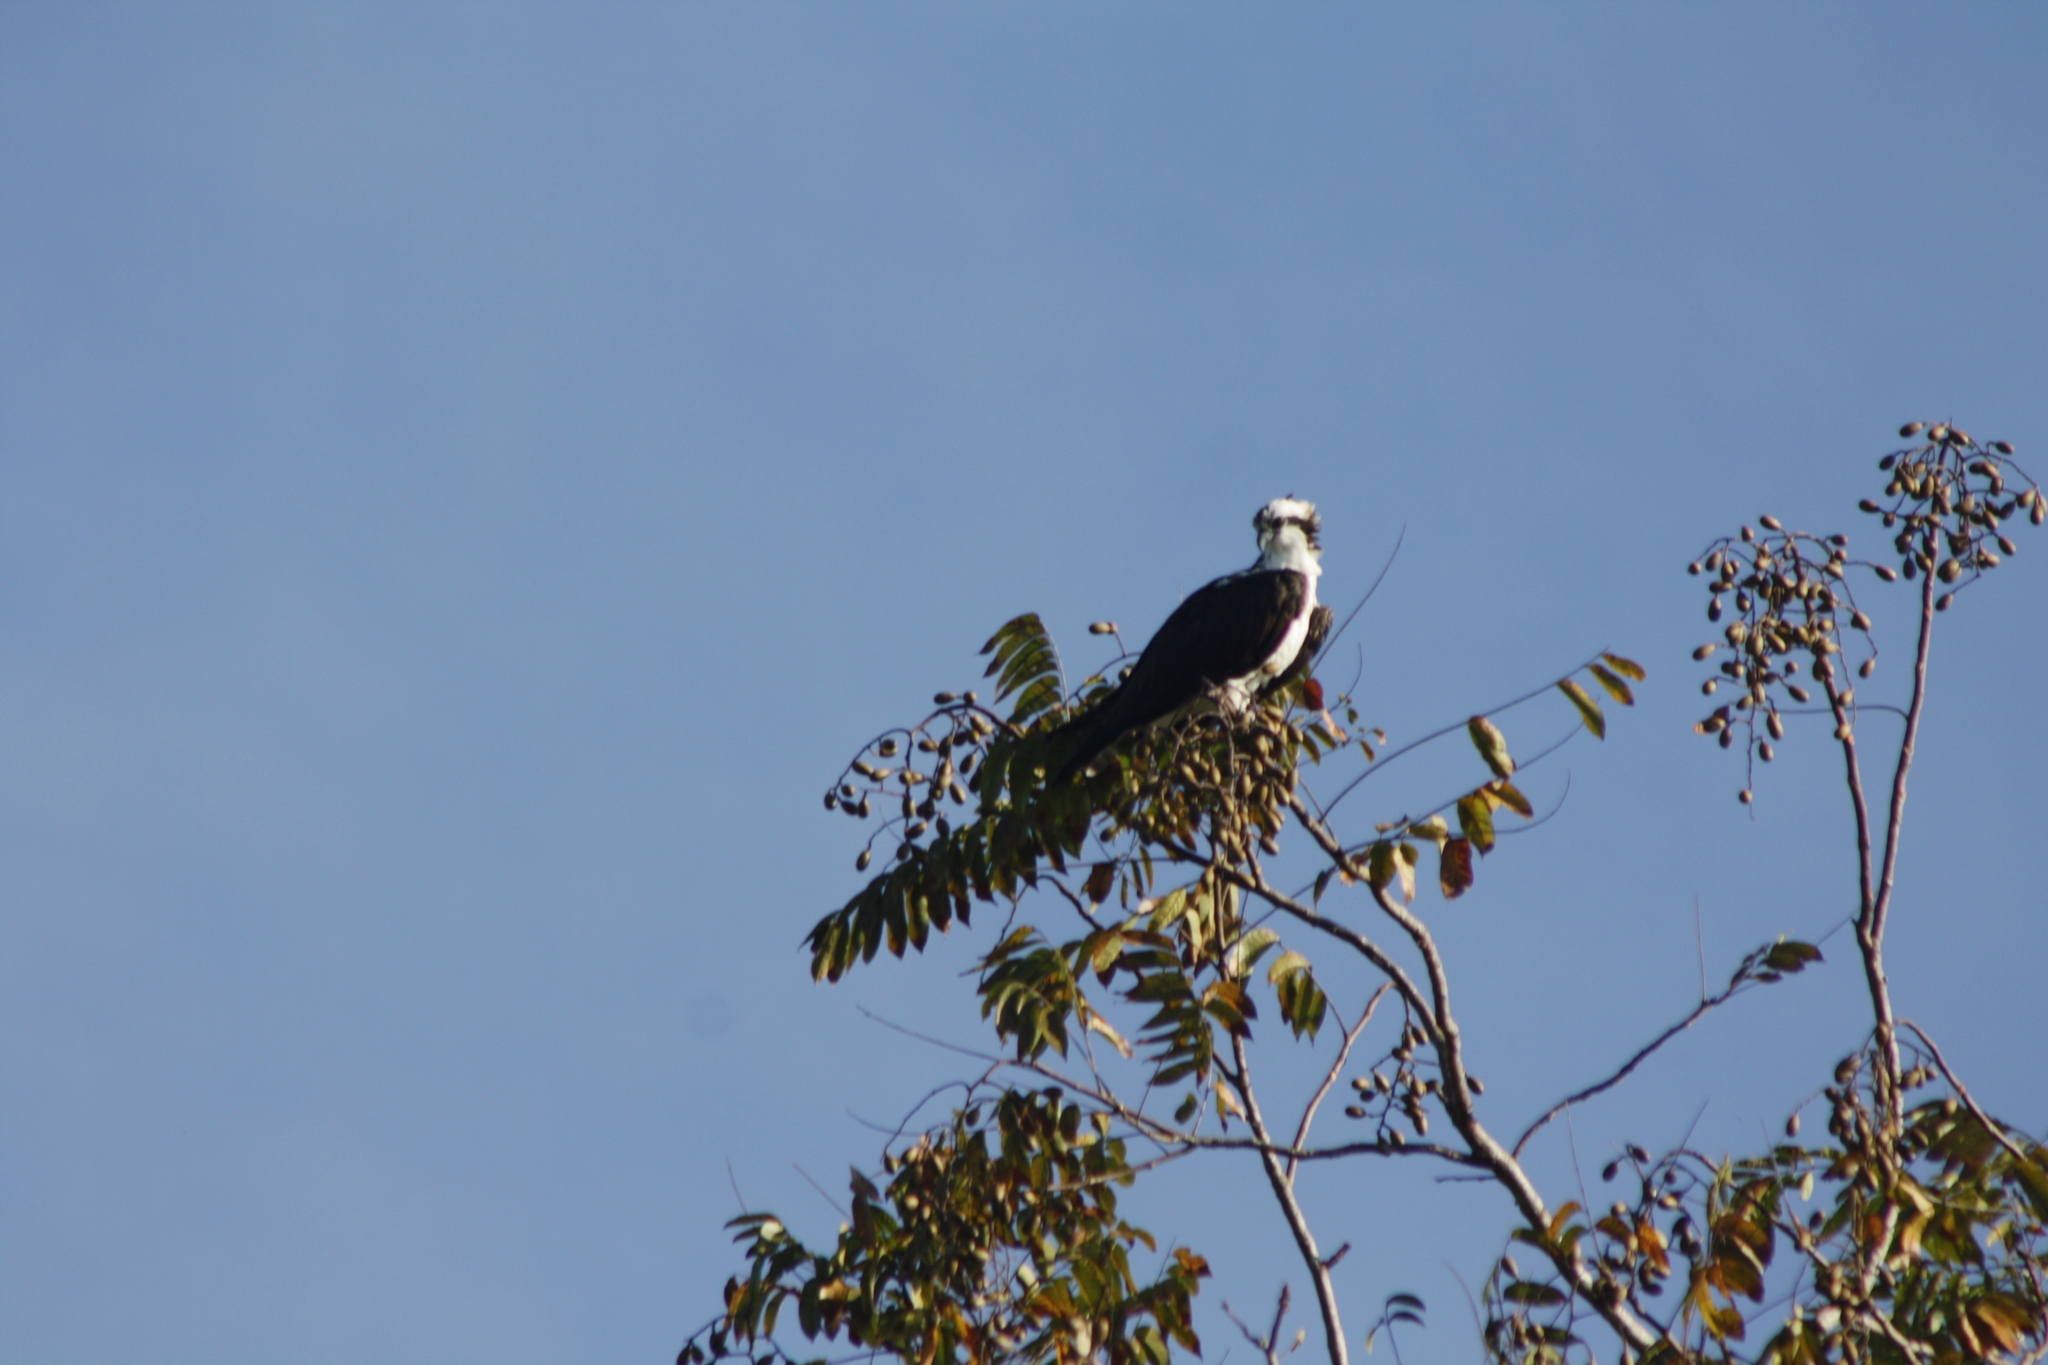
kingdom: Animalia
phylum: Chordata
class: Aves
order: Accipitriformes
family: Pandionidae
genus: Pandion
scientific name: Pandion haliaetus
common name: Osprey
